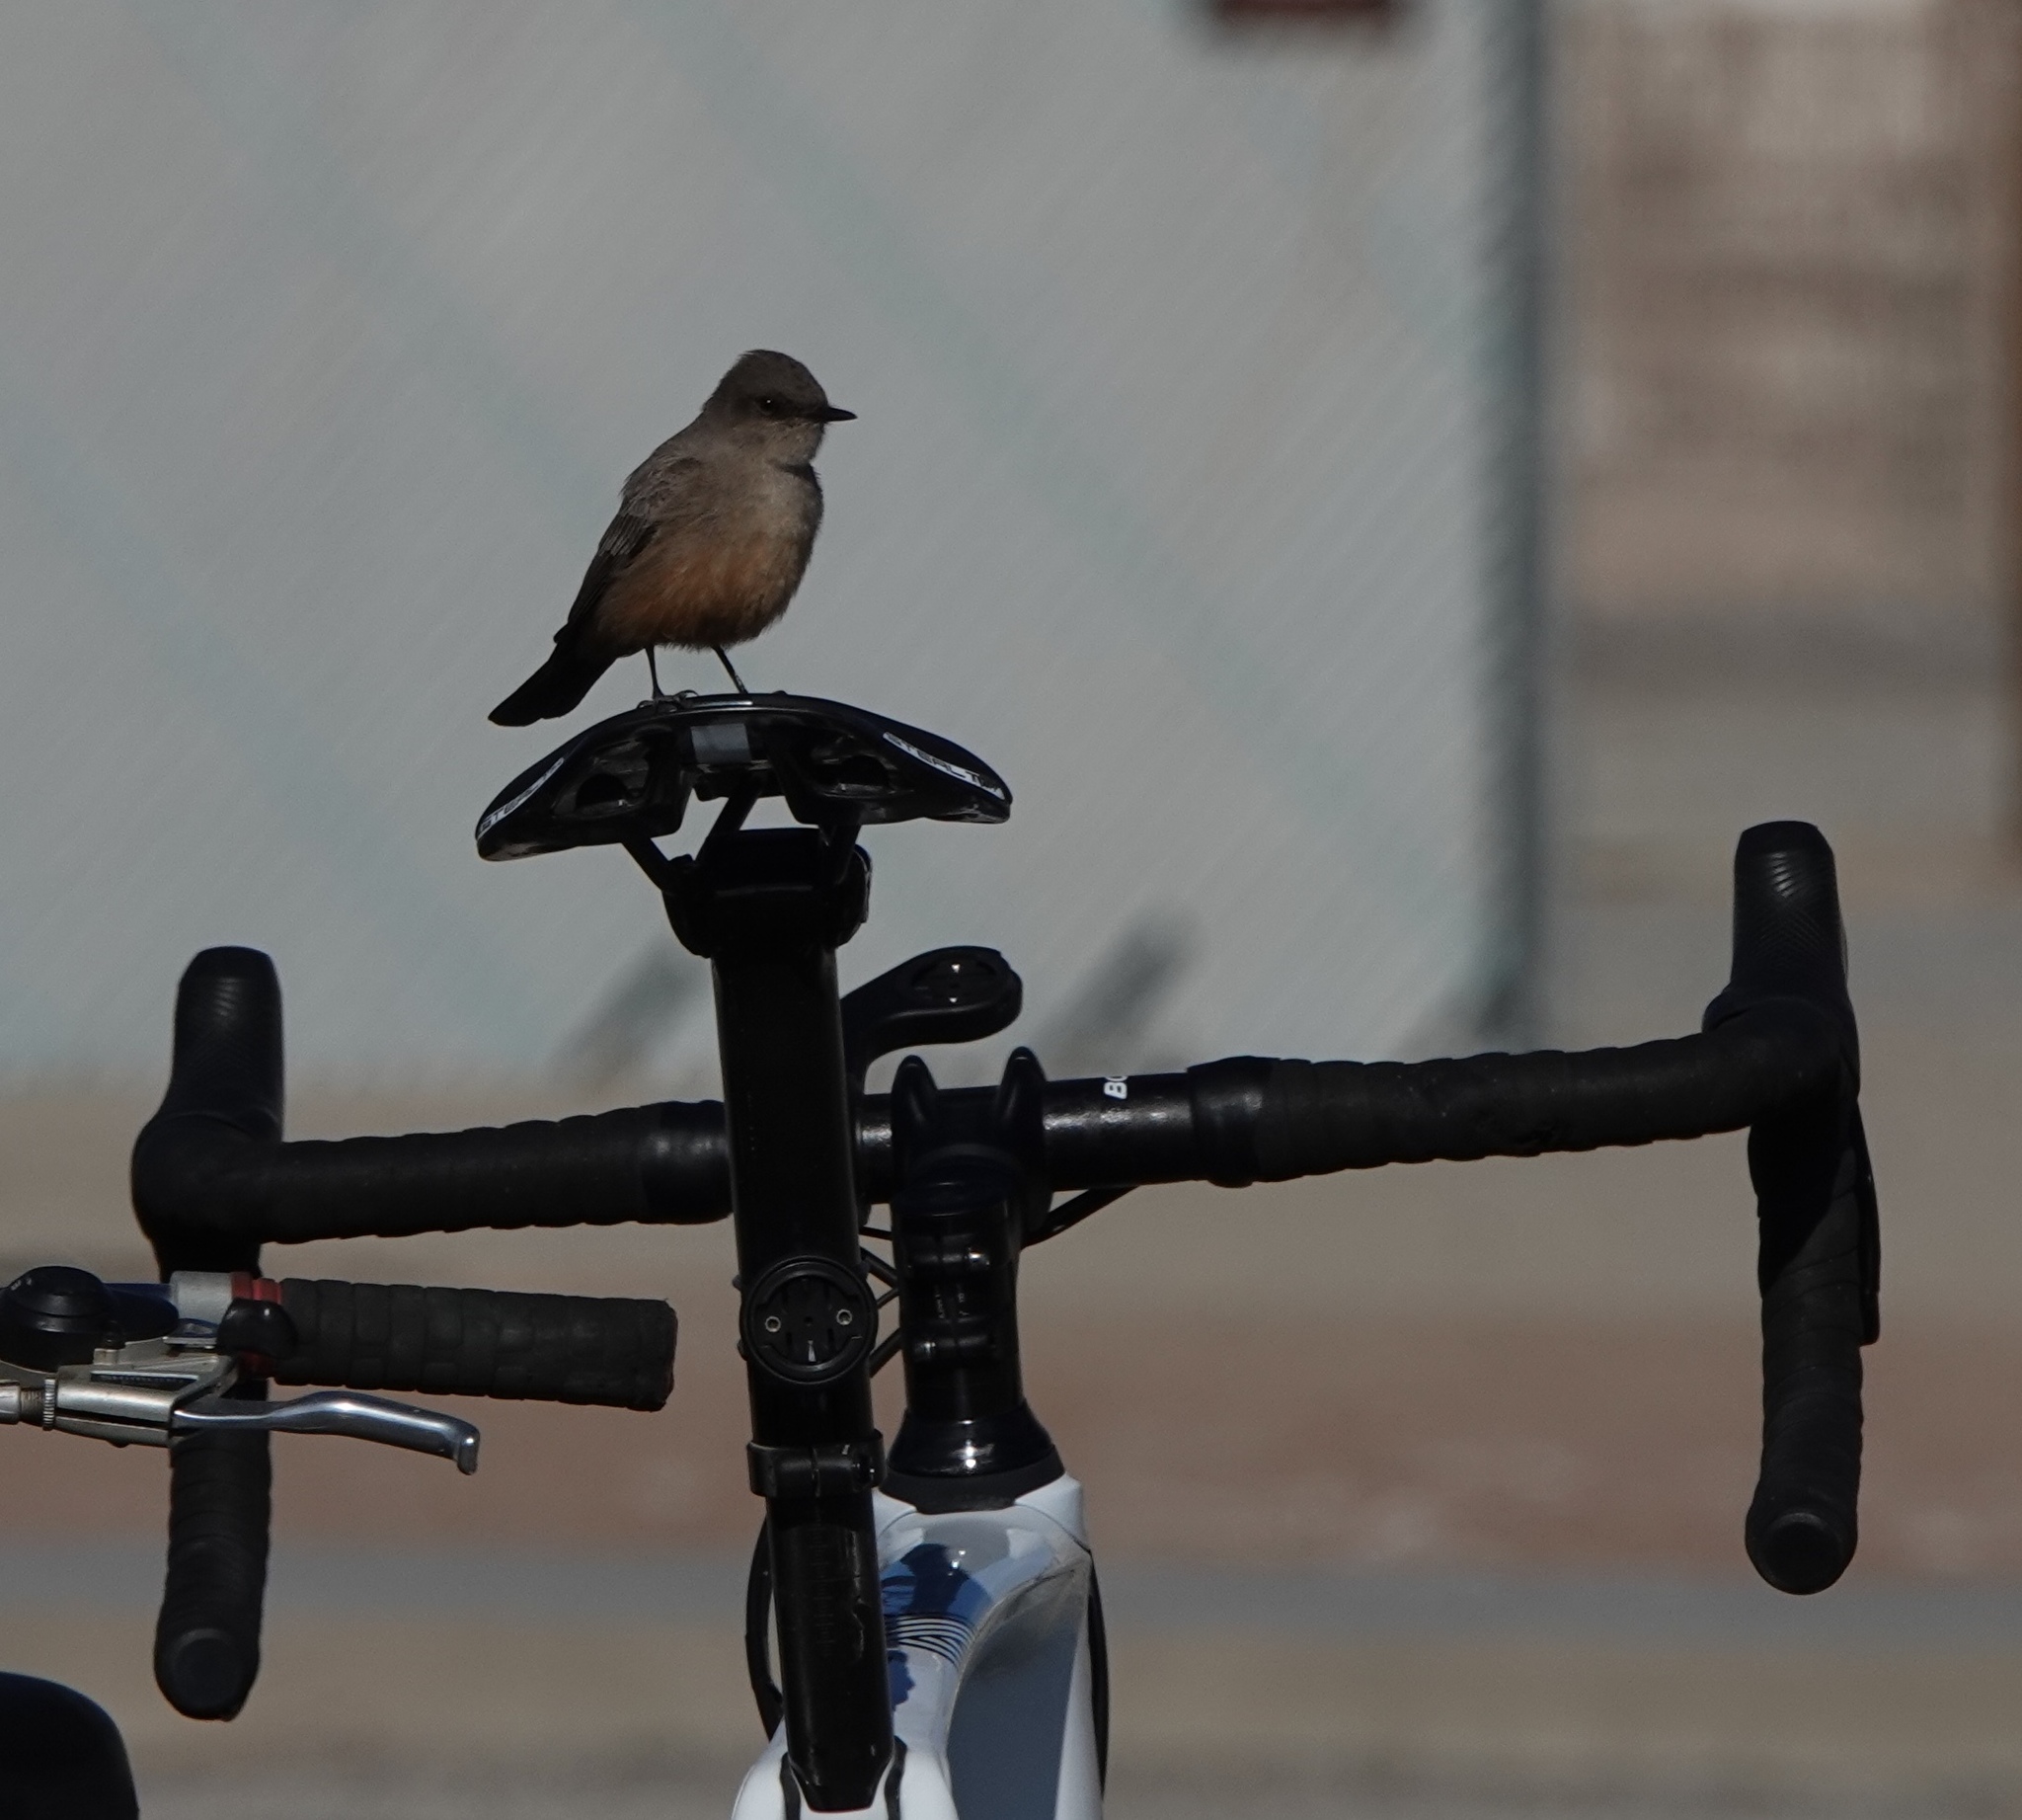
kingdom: Animalia
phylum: Chordata
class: Aves
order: Passeriformes
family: Tyrannidae
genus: Sayornis
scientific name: Sayornis saya
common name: Say's phoebe
